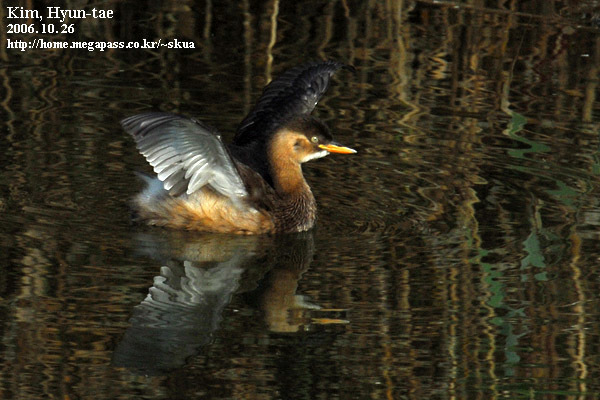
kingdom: Animalia
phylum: Chordata
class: Aves
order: Podicipediformes
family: Podicipedidae
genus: Tachybaptus
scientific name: Tachybaptus ruficollis
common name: Little grebe
